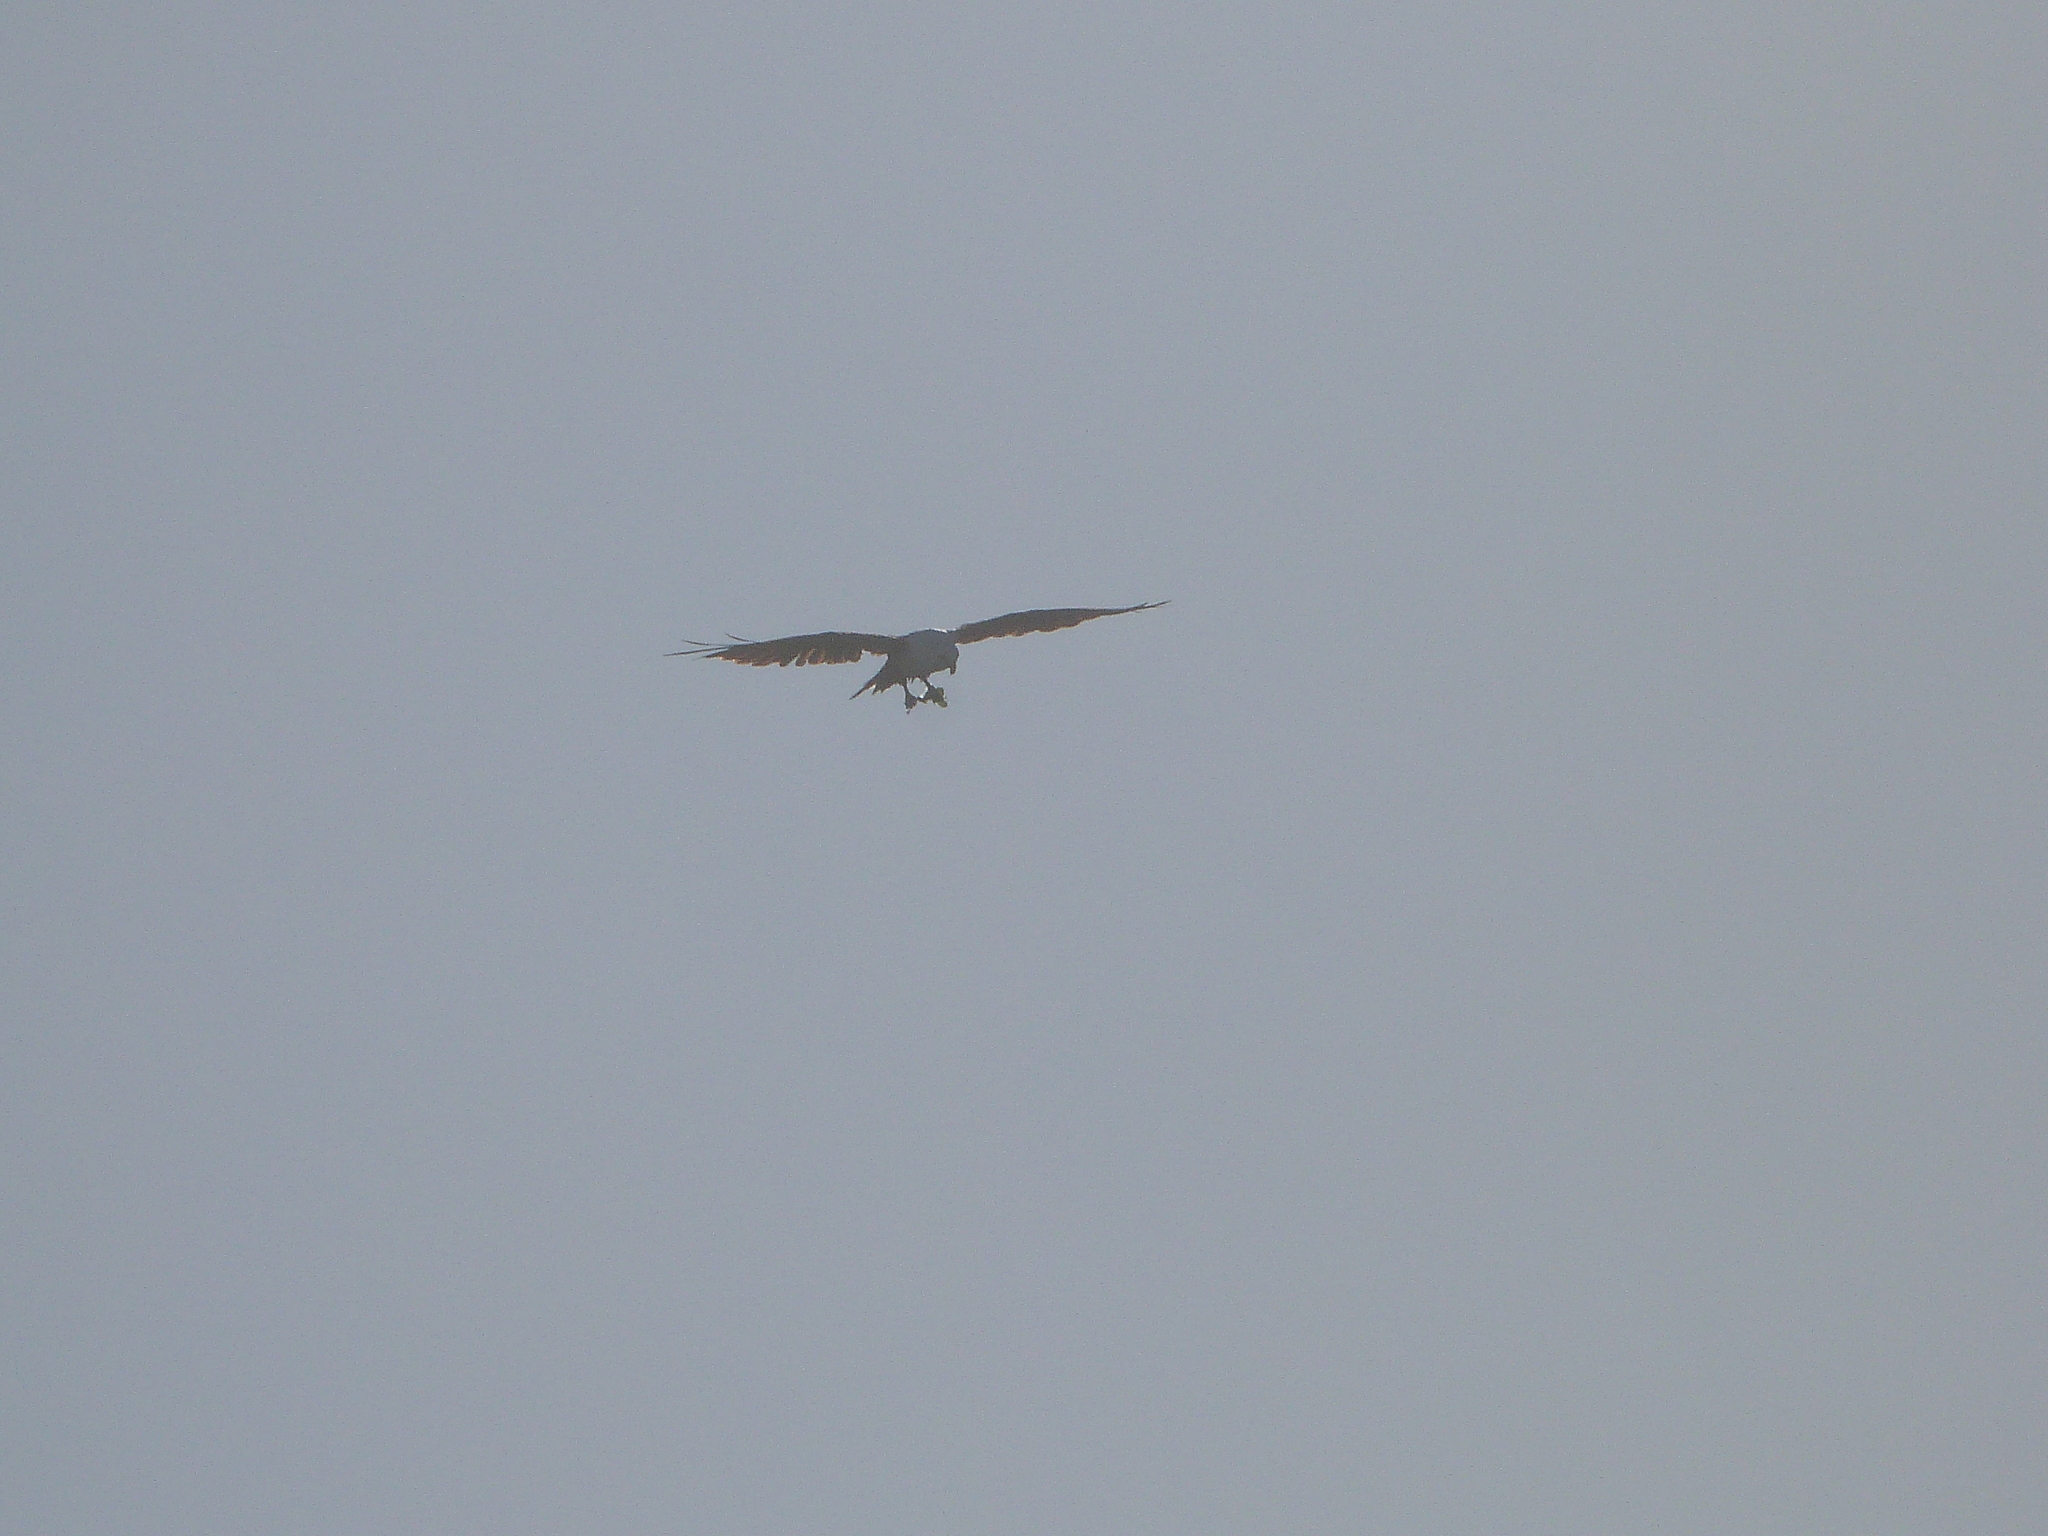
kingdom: Animalia
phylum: Chordata
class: Aves
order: Accipitriformes
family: Accipitridae
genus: Haliastur
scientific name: Haliastur indus
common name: Brahminy kite
